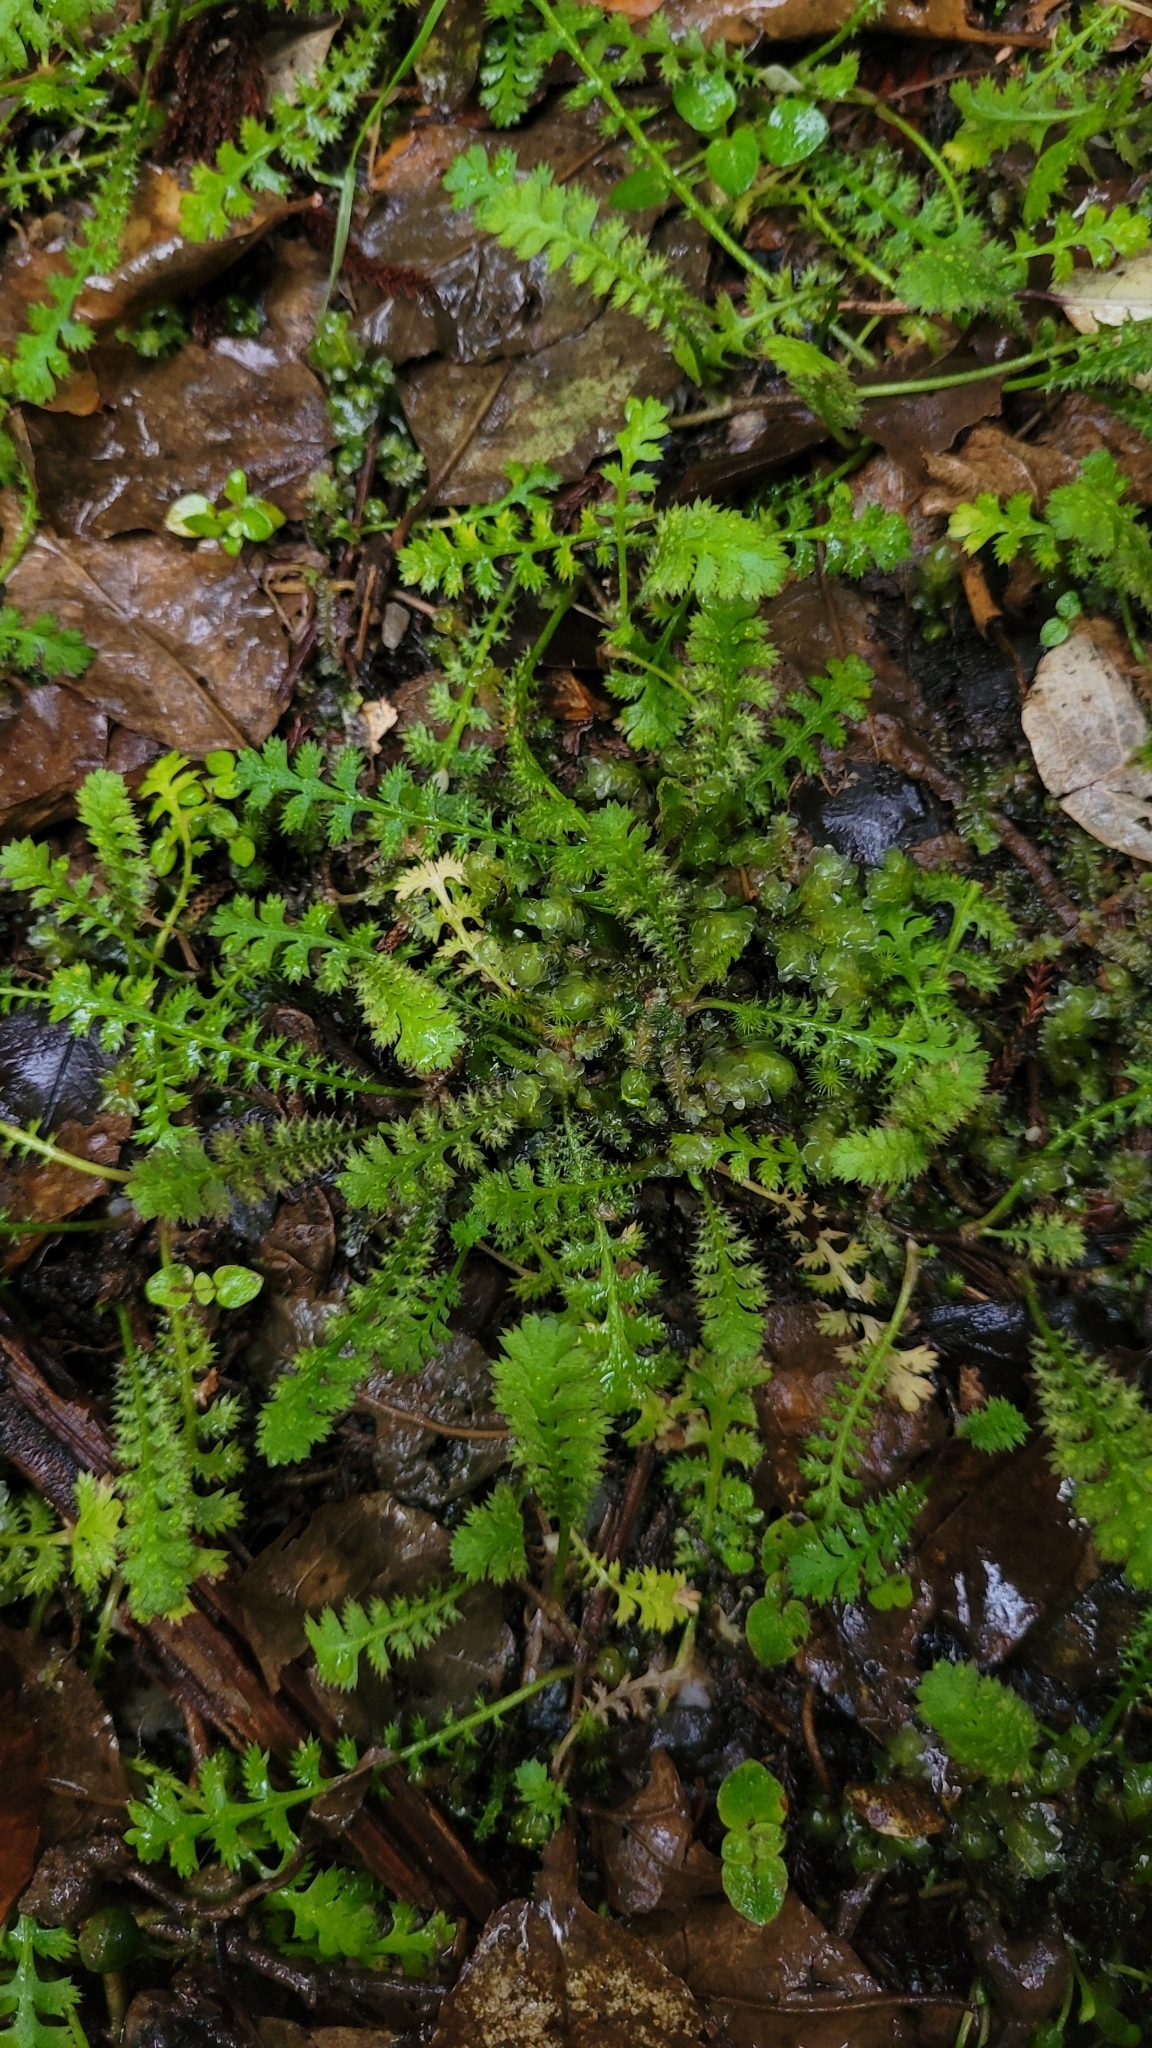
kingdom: Plantae
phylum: Tracheophyta
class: Magnoliopsida
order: Asterales
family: Asteraceae
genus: Leptinella
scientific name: Leptinella squalida
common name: New zealand brass-buttons
